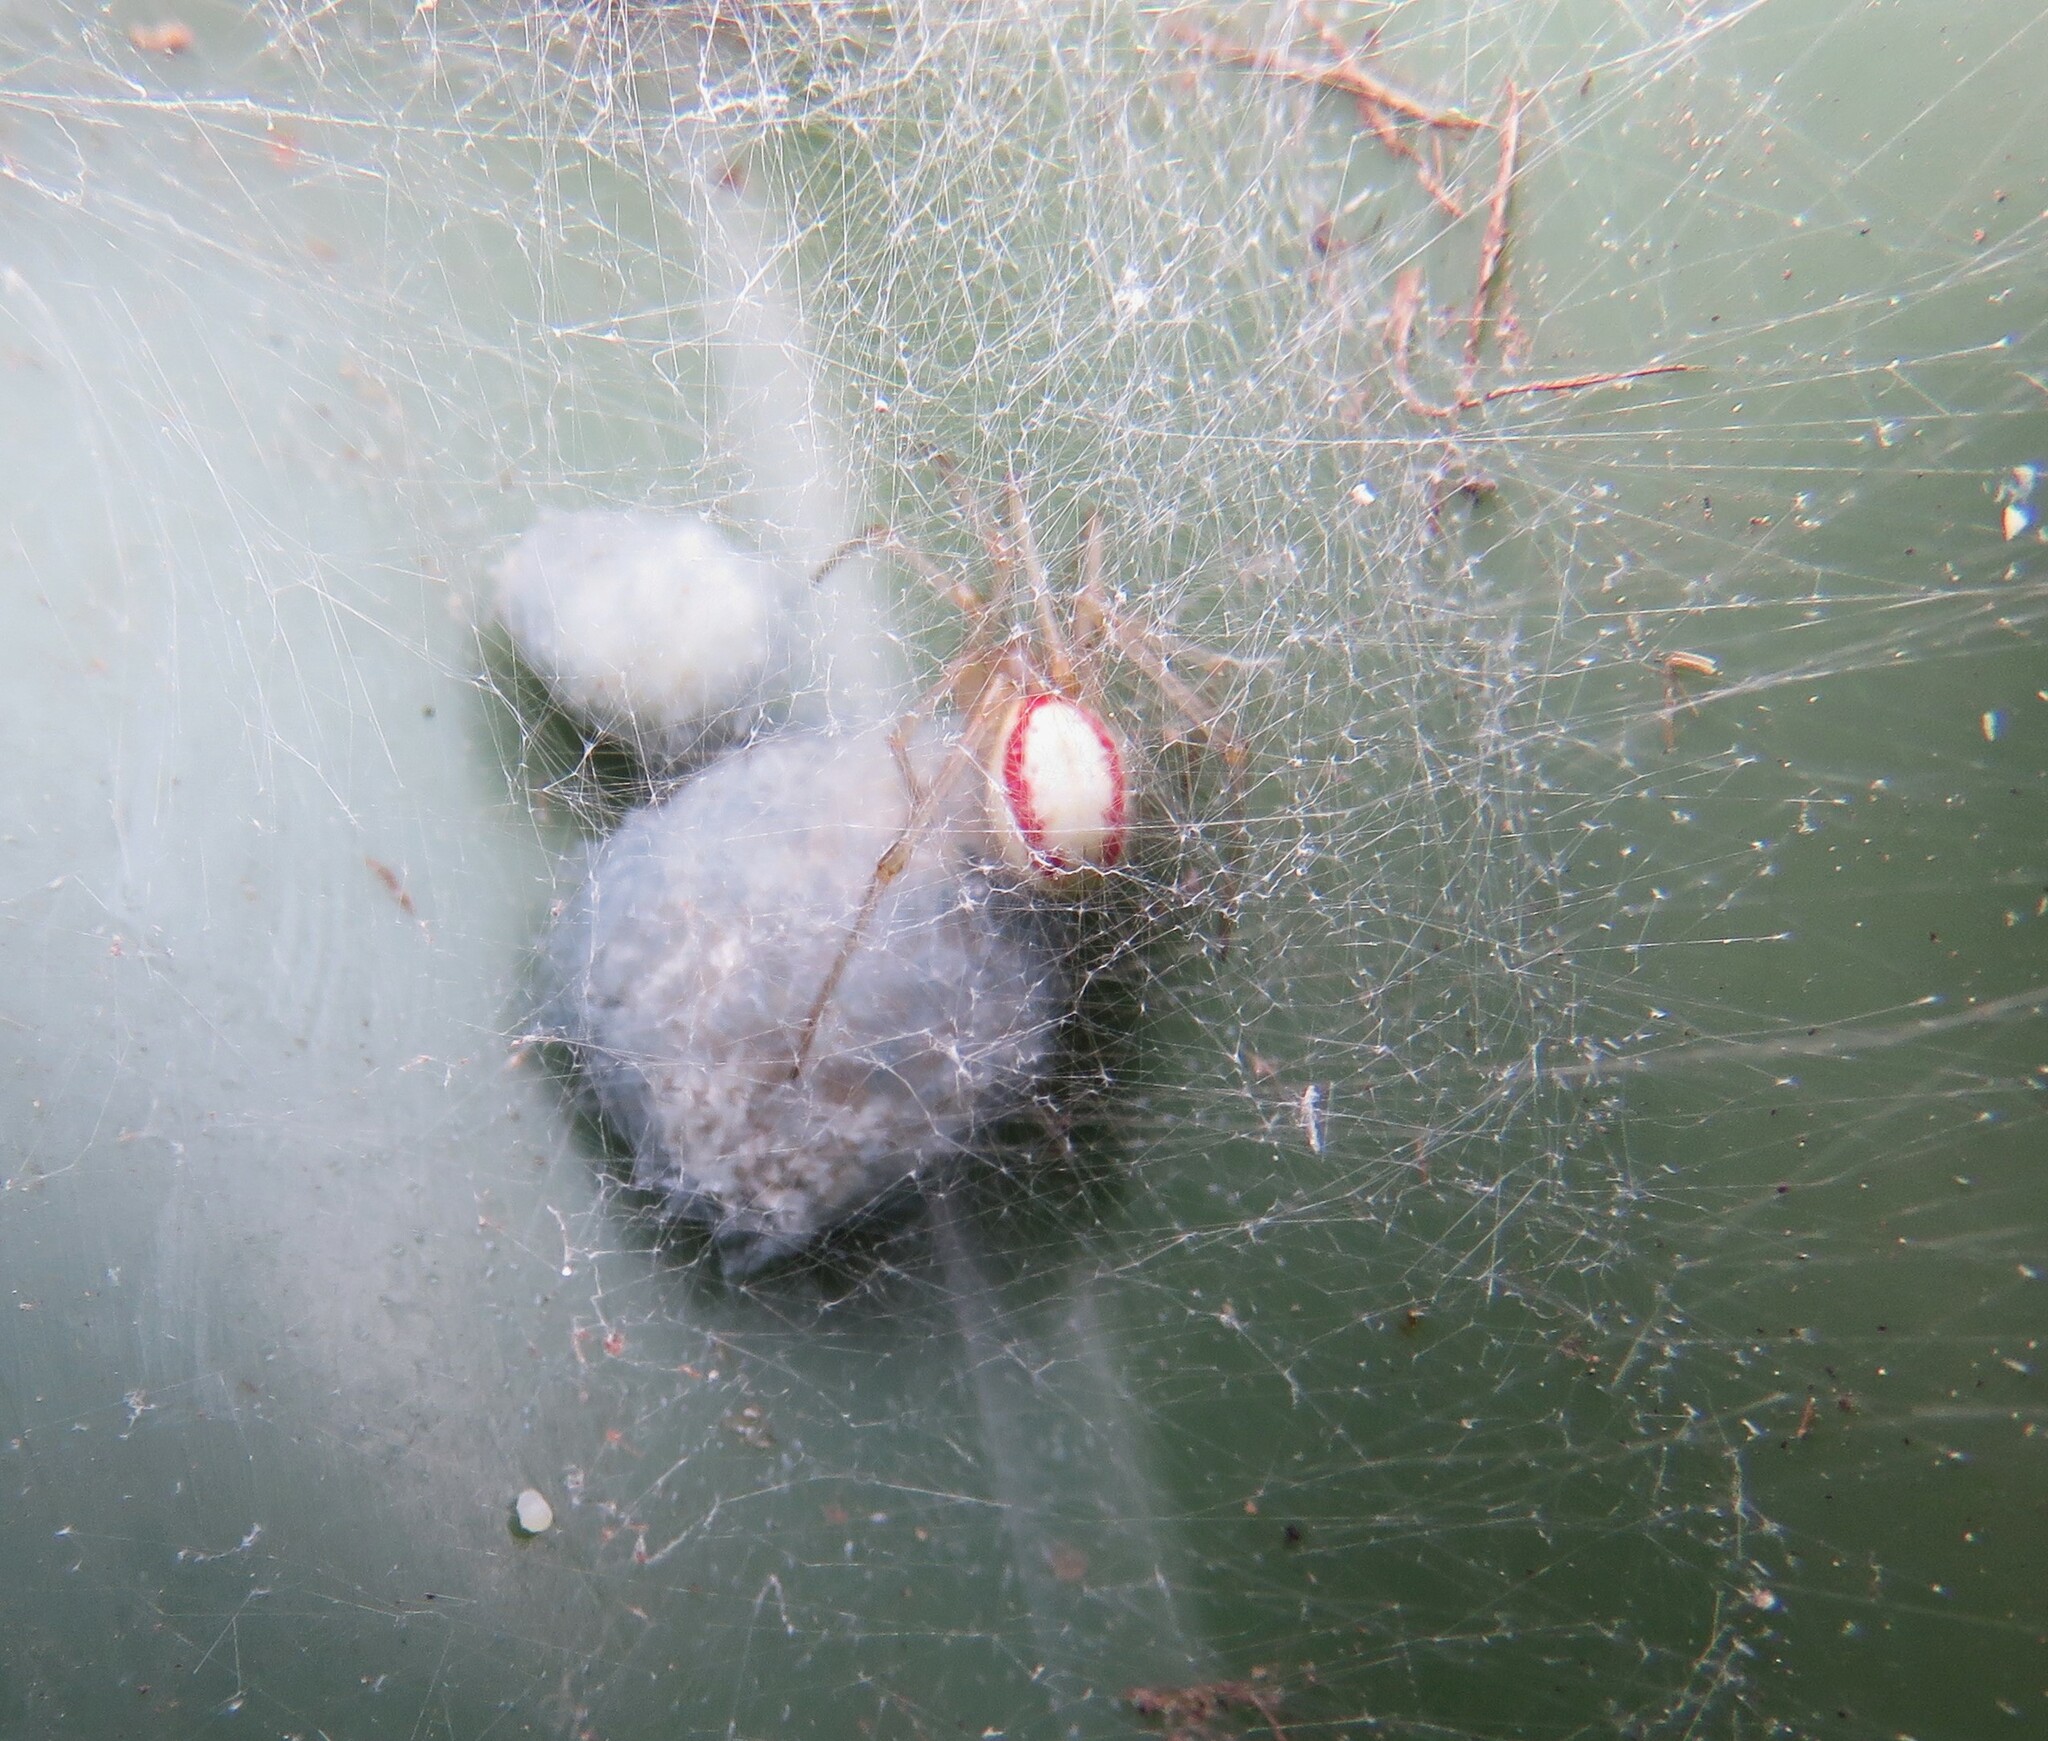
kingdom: Animalia
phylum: Arthropoda
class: Arachnida
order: Araneae
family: Theridiidae
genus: Enoplognatha
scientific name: Enoplognatha ovata
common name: Common candy-striped spider
